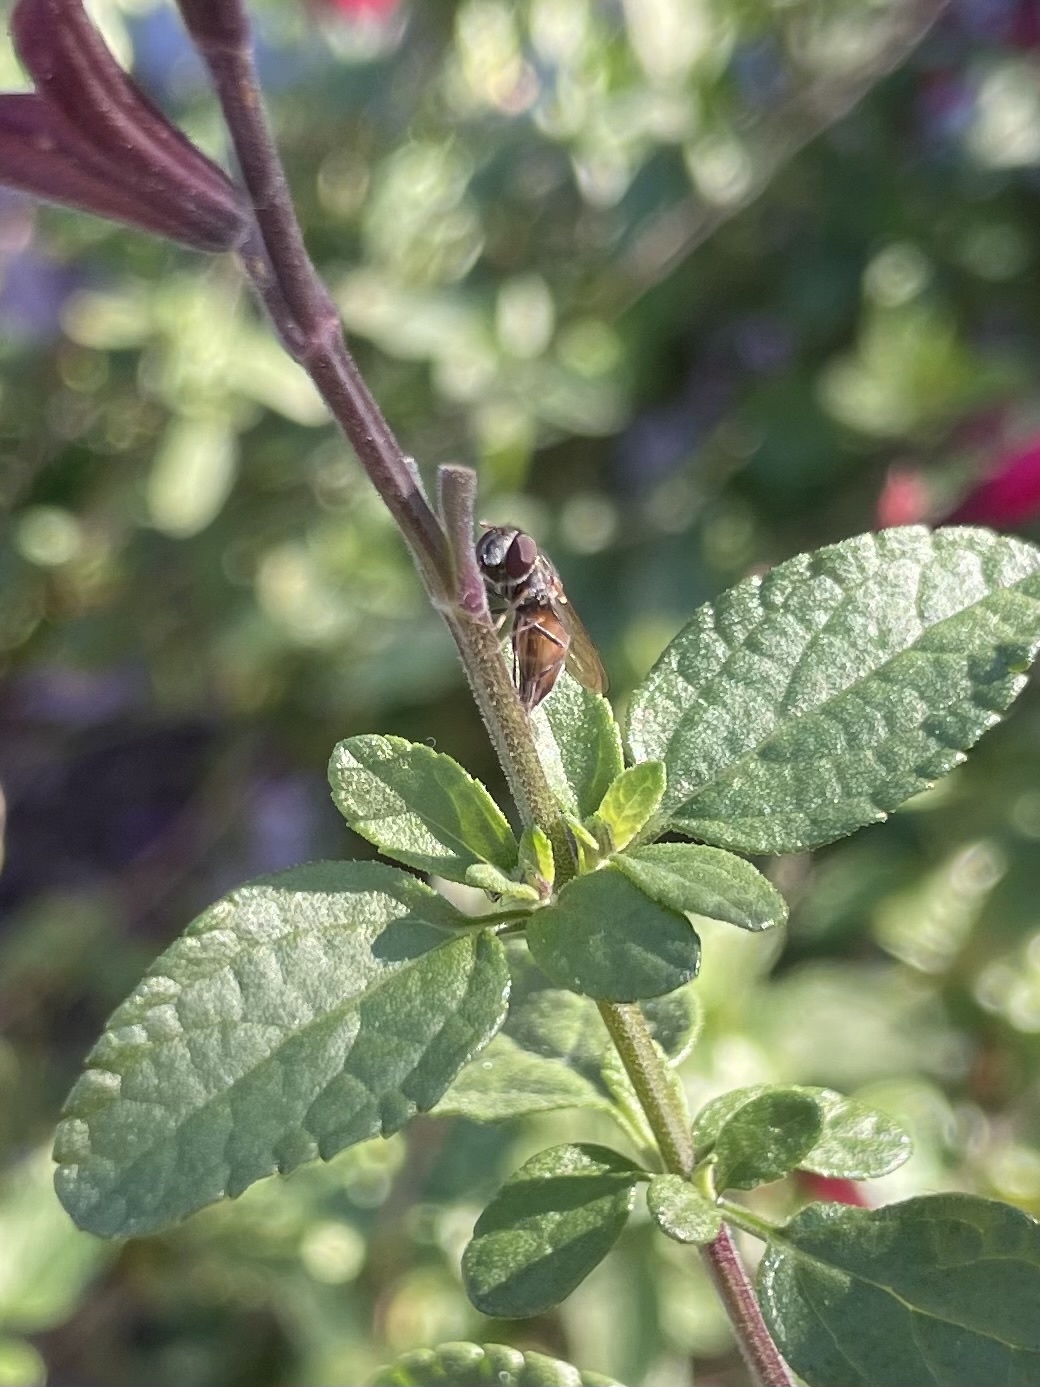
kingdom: Animalia
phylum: Arthropoda
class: Insecta
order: Diptera
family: Syrphidae
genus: Platycheirus
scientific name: Platycheirus trichopus
